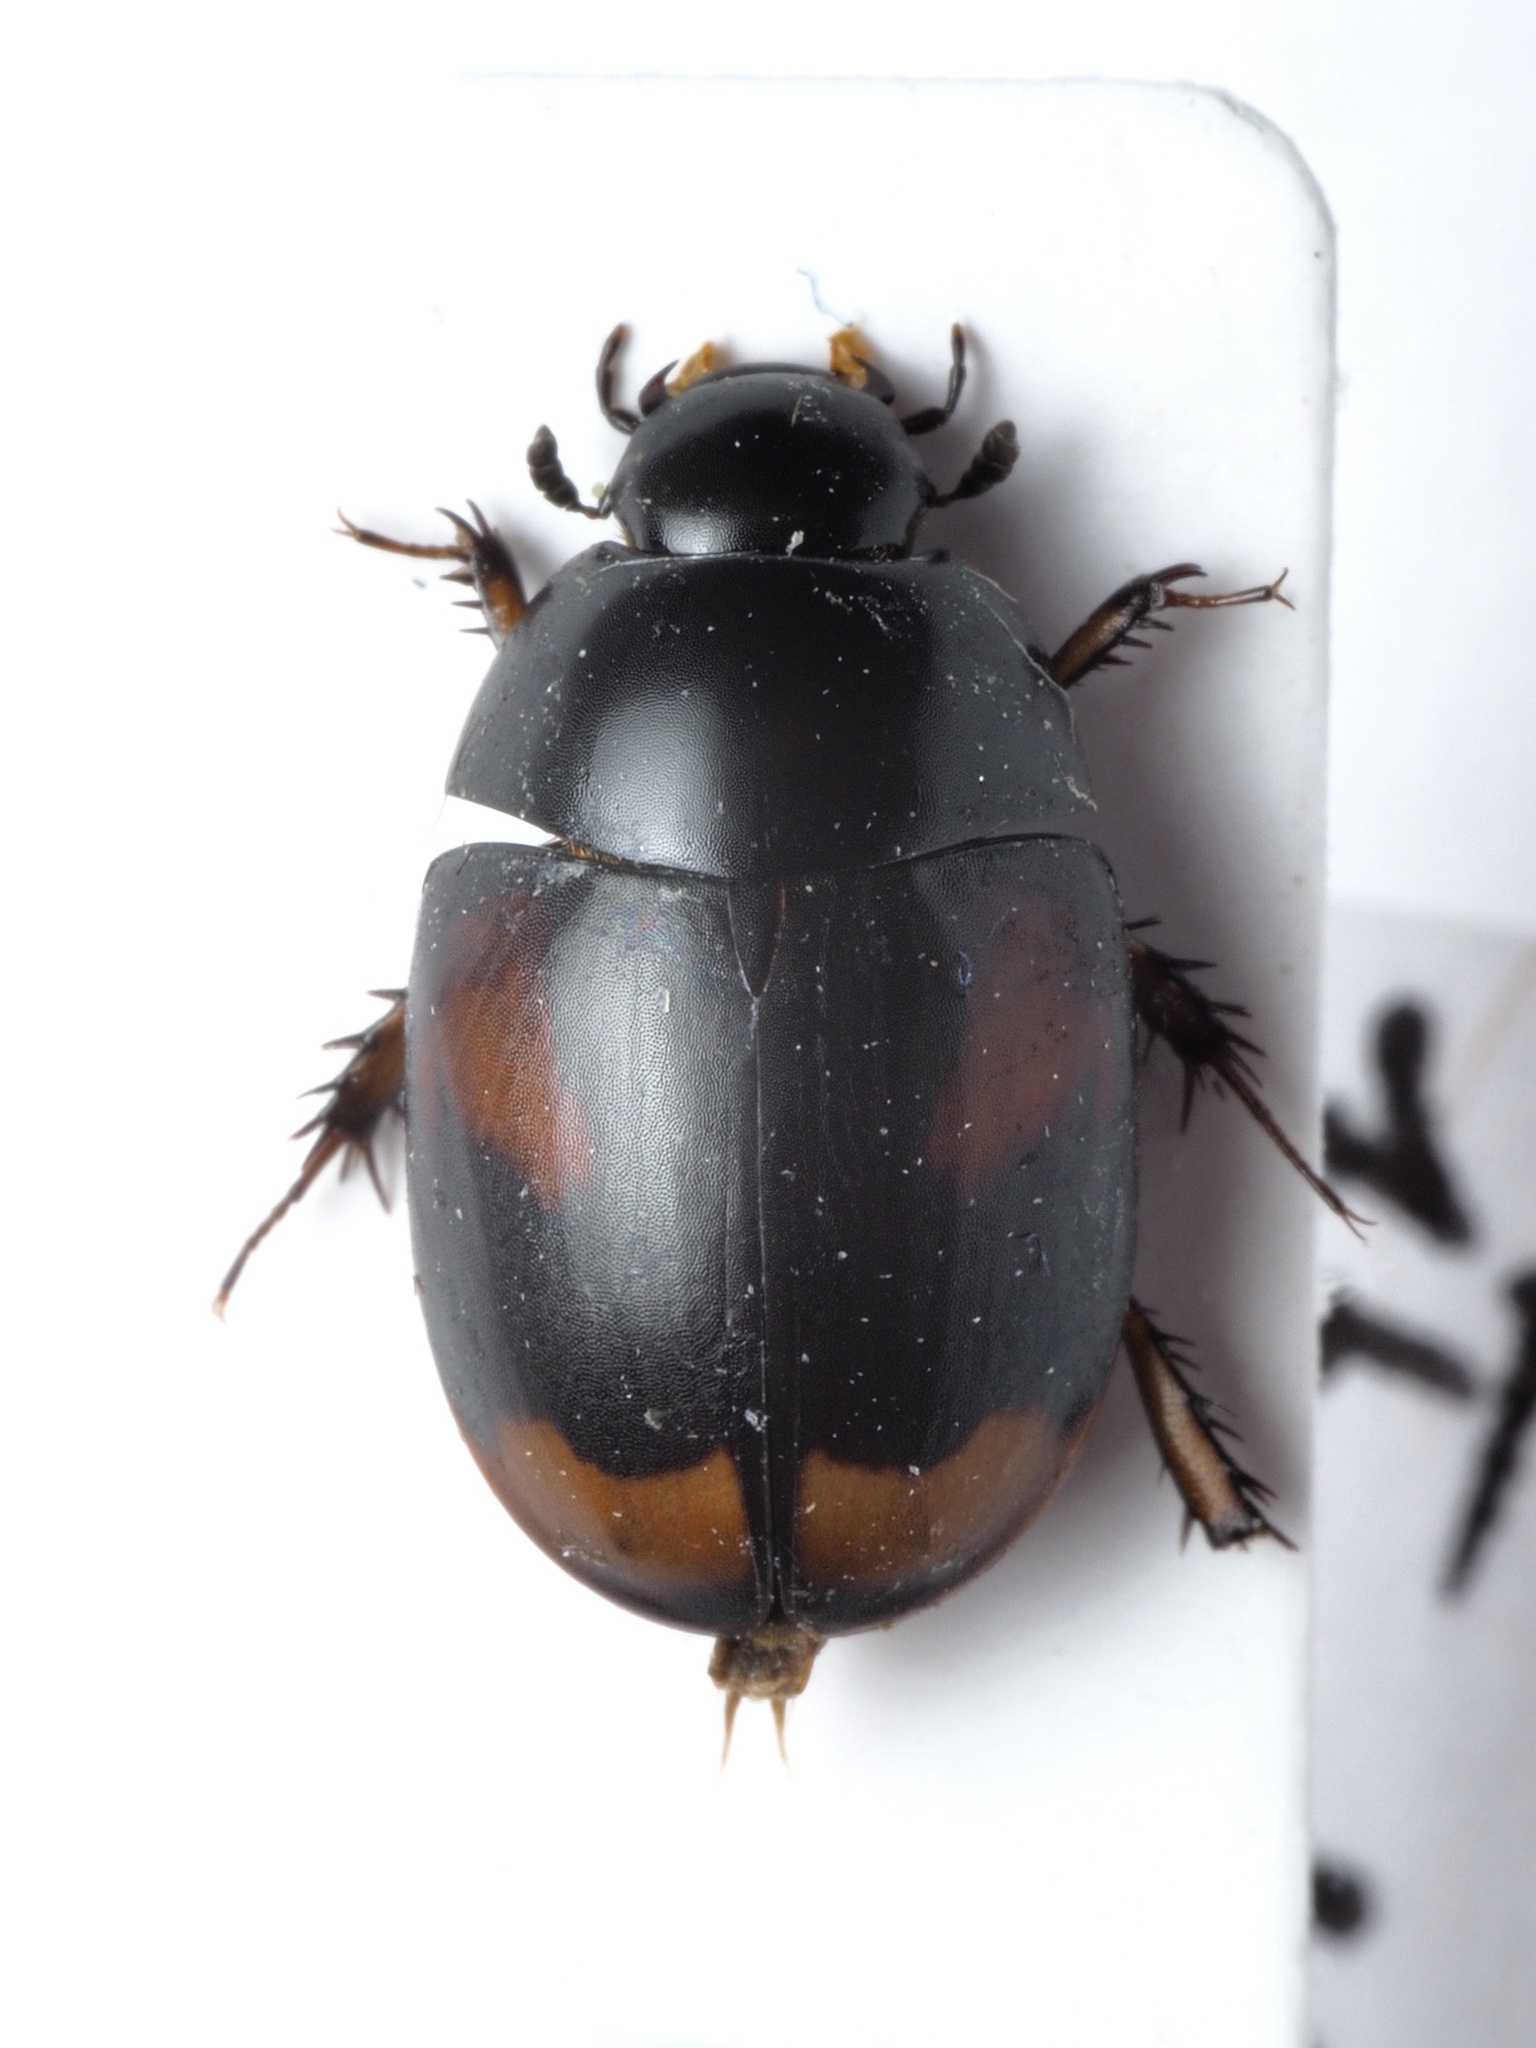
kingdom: Animalia
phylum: Arthropoda
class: Insecta
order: Coleoptera
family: Hydrophilidae
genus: Sphaeridium
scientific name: Sphaeridium scarabaeoides
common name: Water scavenger beetle
